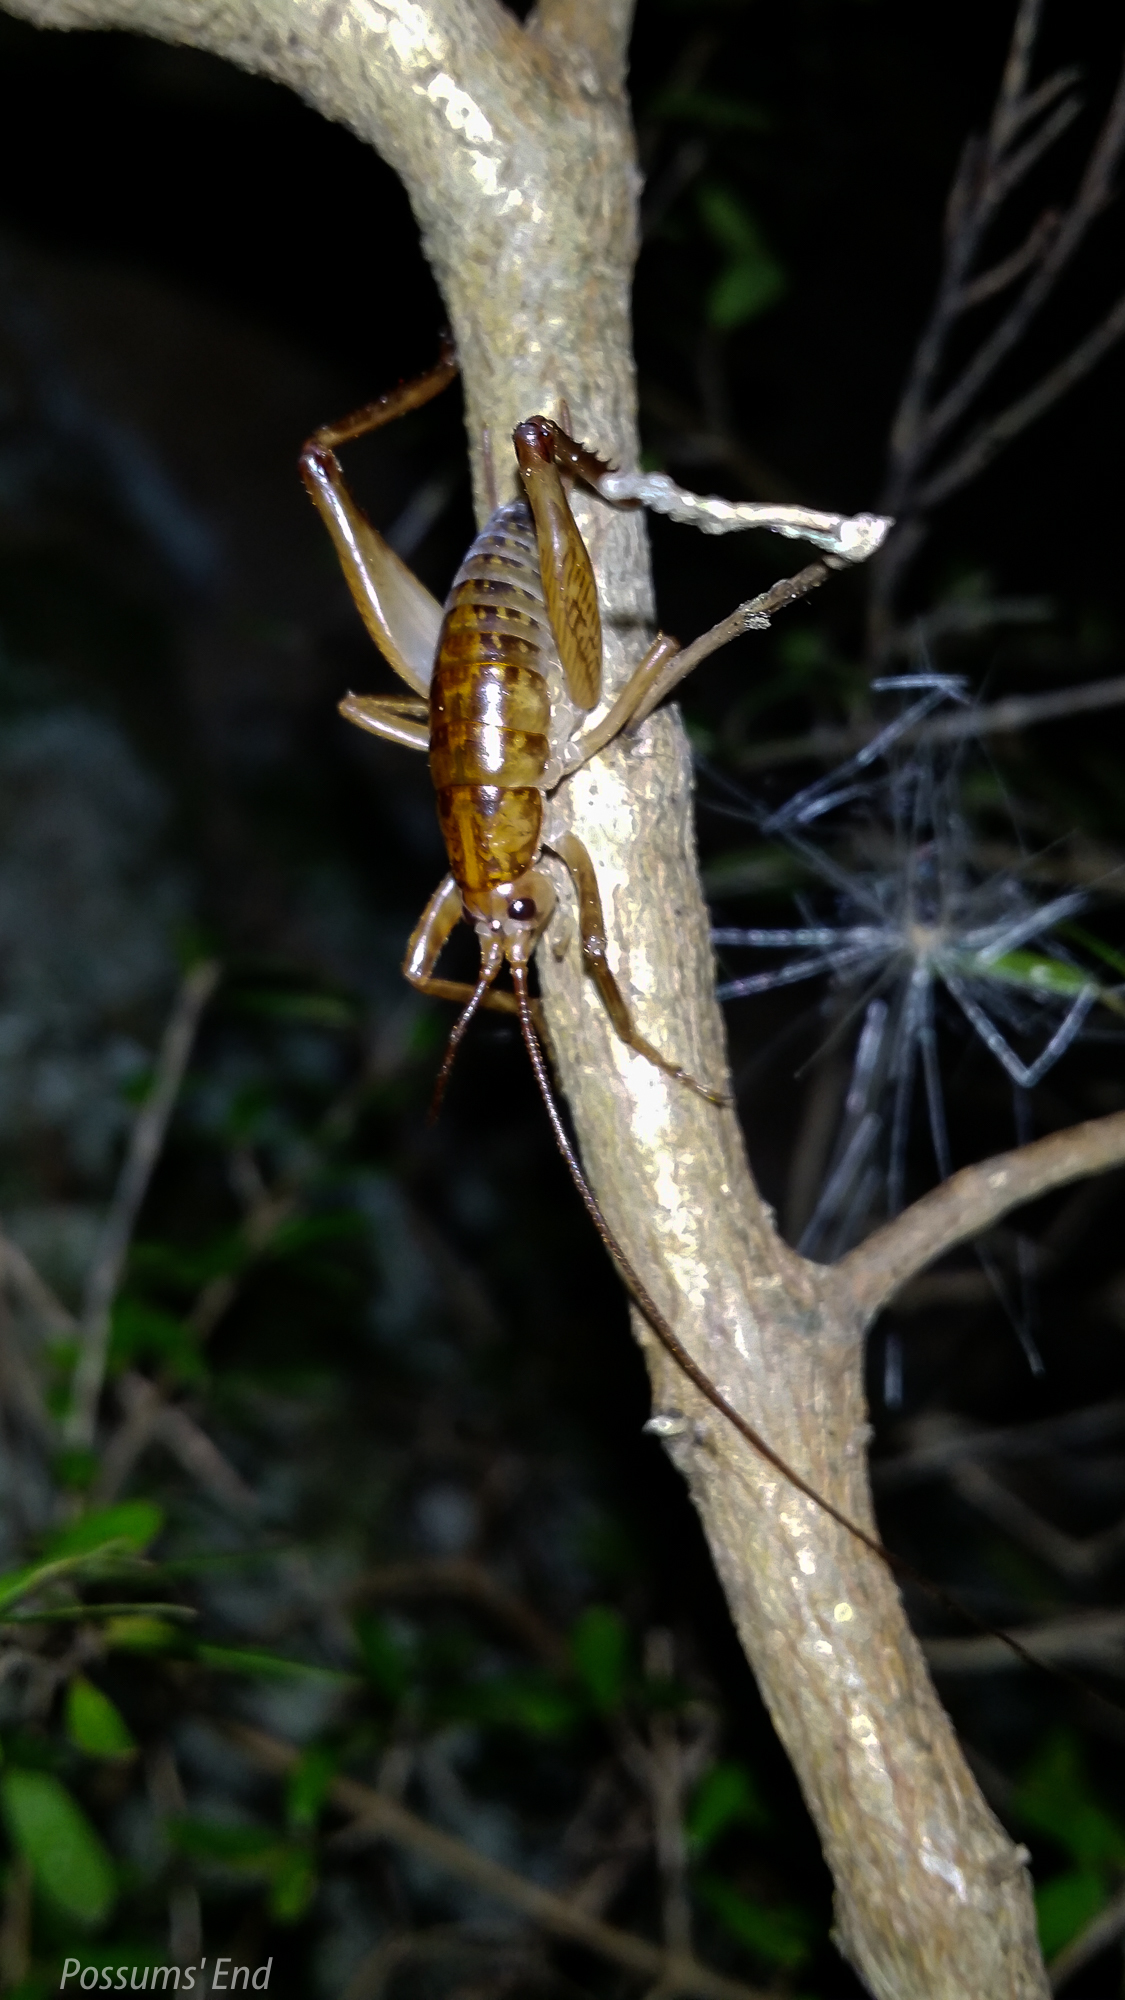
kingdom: Animalia
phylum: Arthropoda
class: Insecta
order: Orthoptera
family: Rhaphidophoridae
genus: Talitropsis
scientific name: Talitropsis sedilloti
